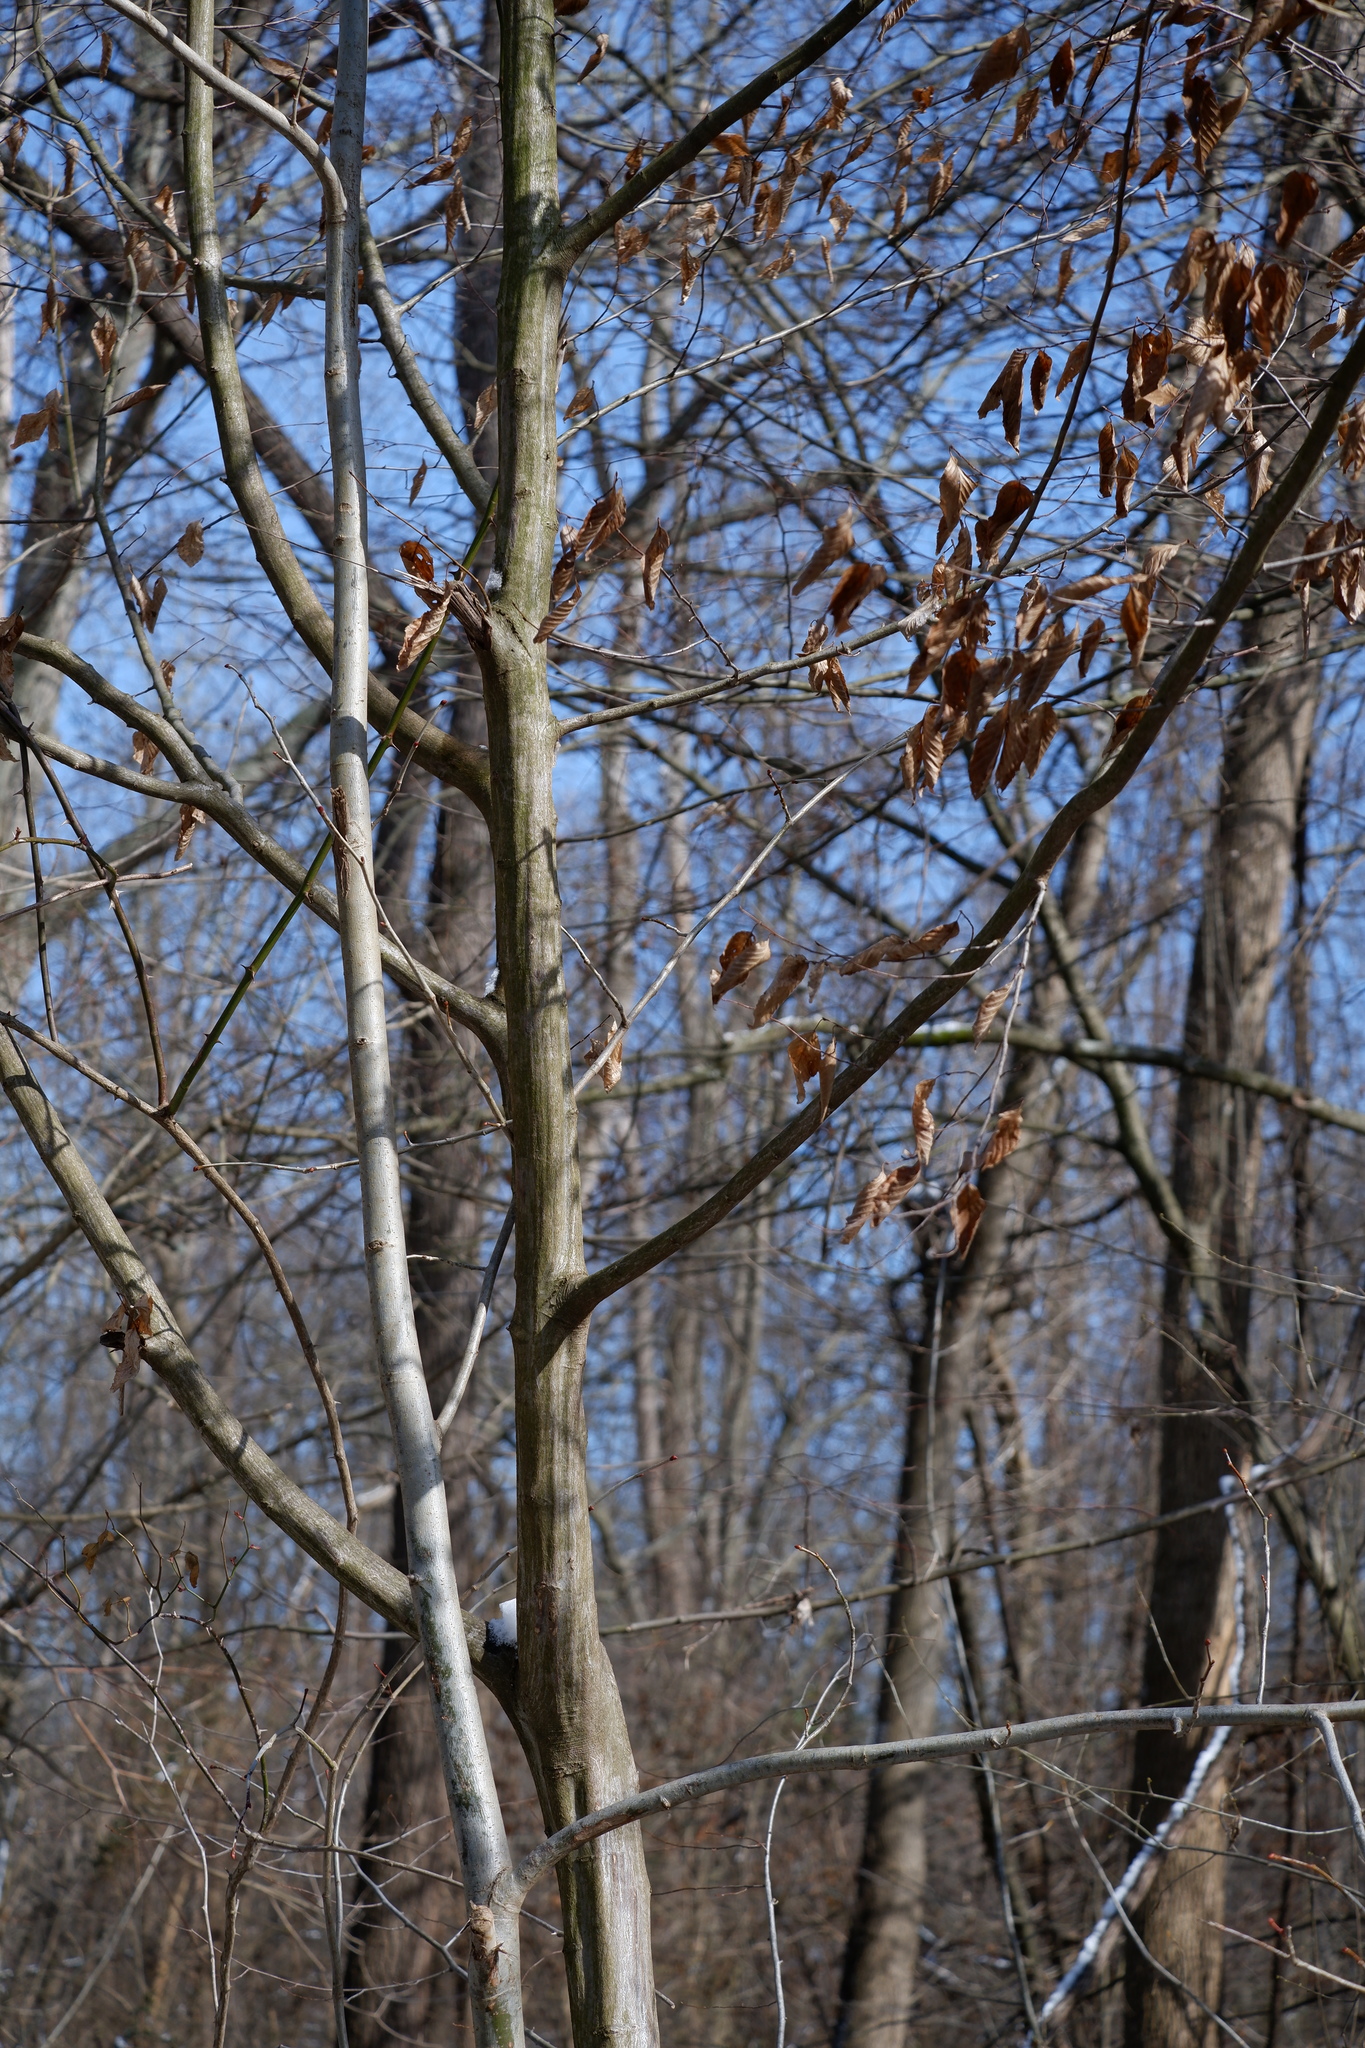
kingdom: Plantae
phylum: Tracheophyta
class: Magnoliopsida
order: Fagales
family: Betulaceae
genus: Carpinus
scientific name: Carpinus caroliniana
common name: American hornbeam
